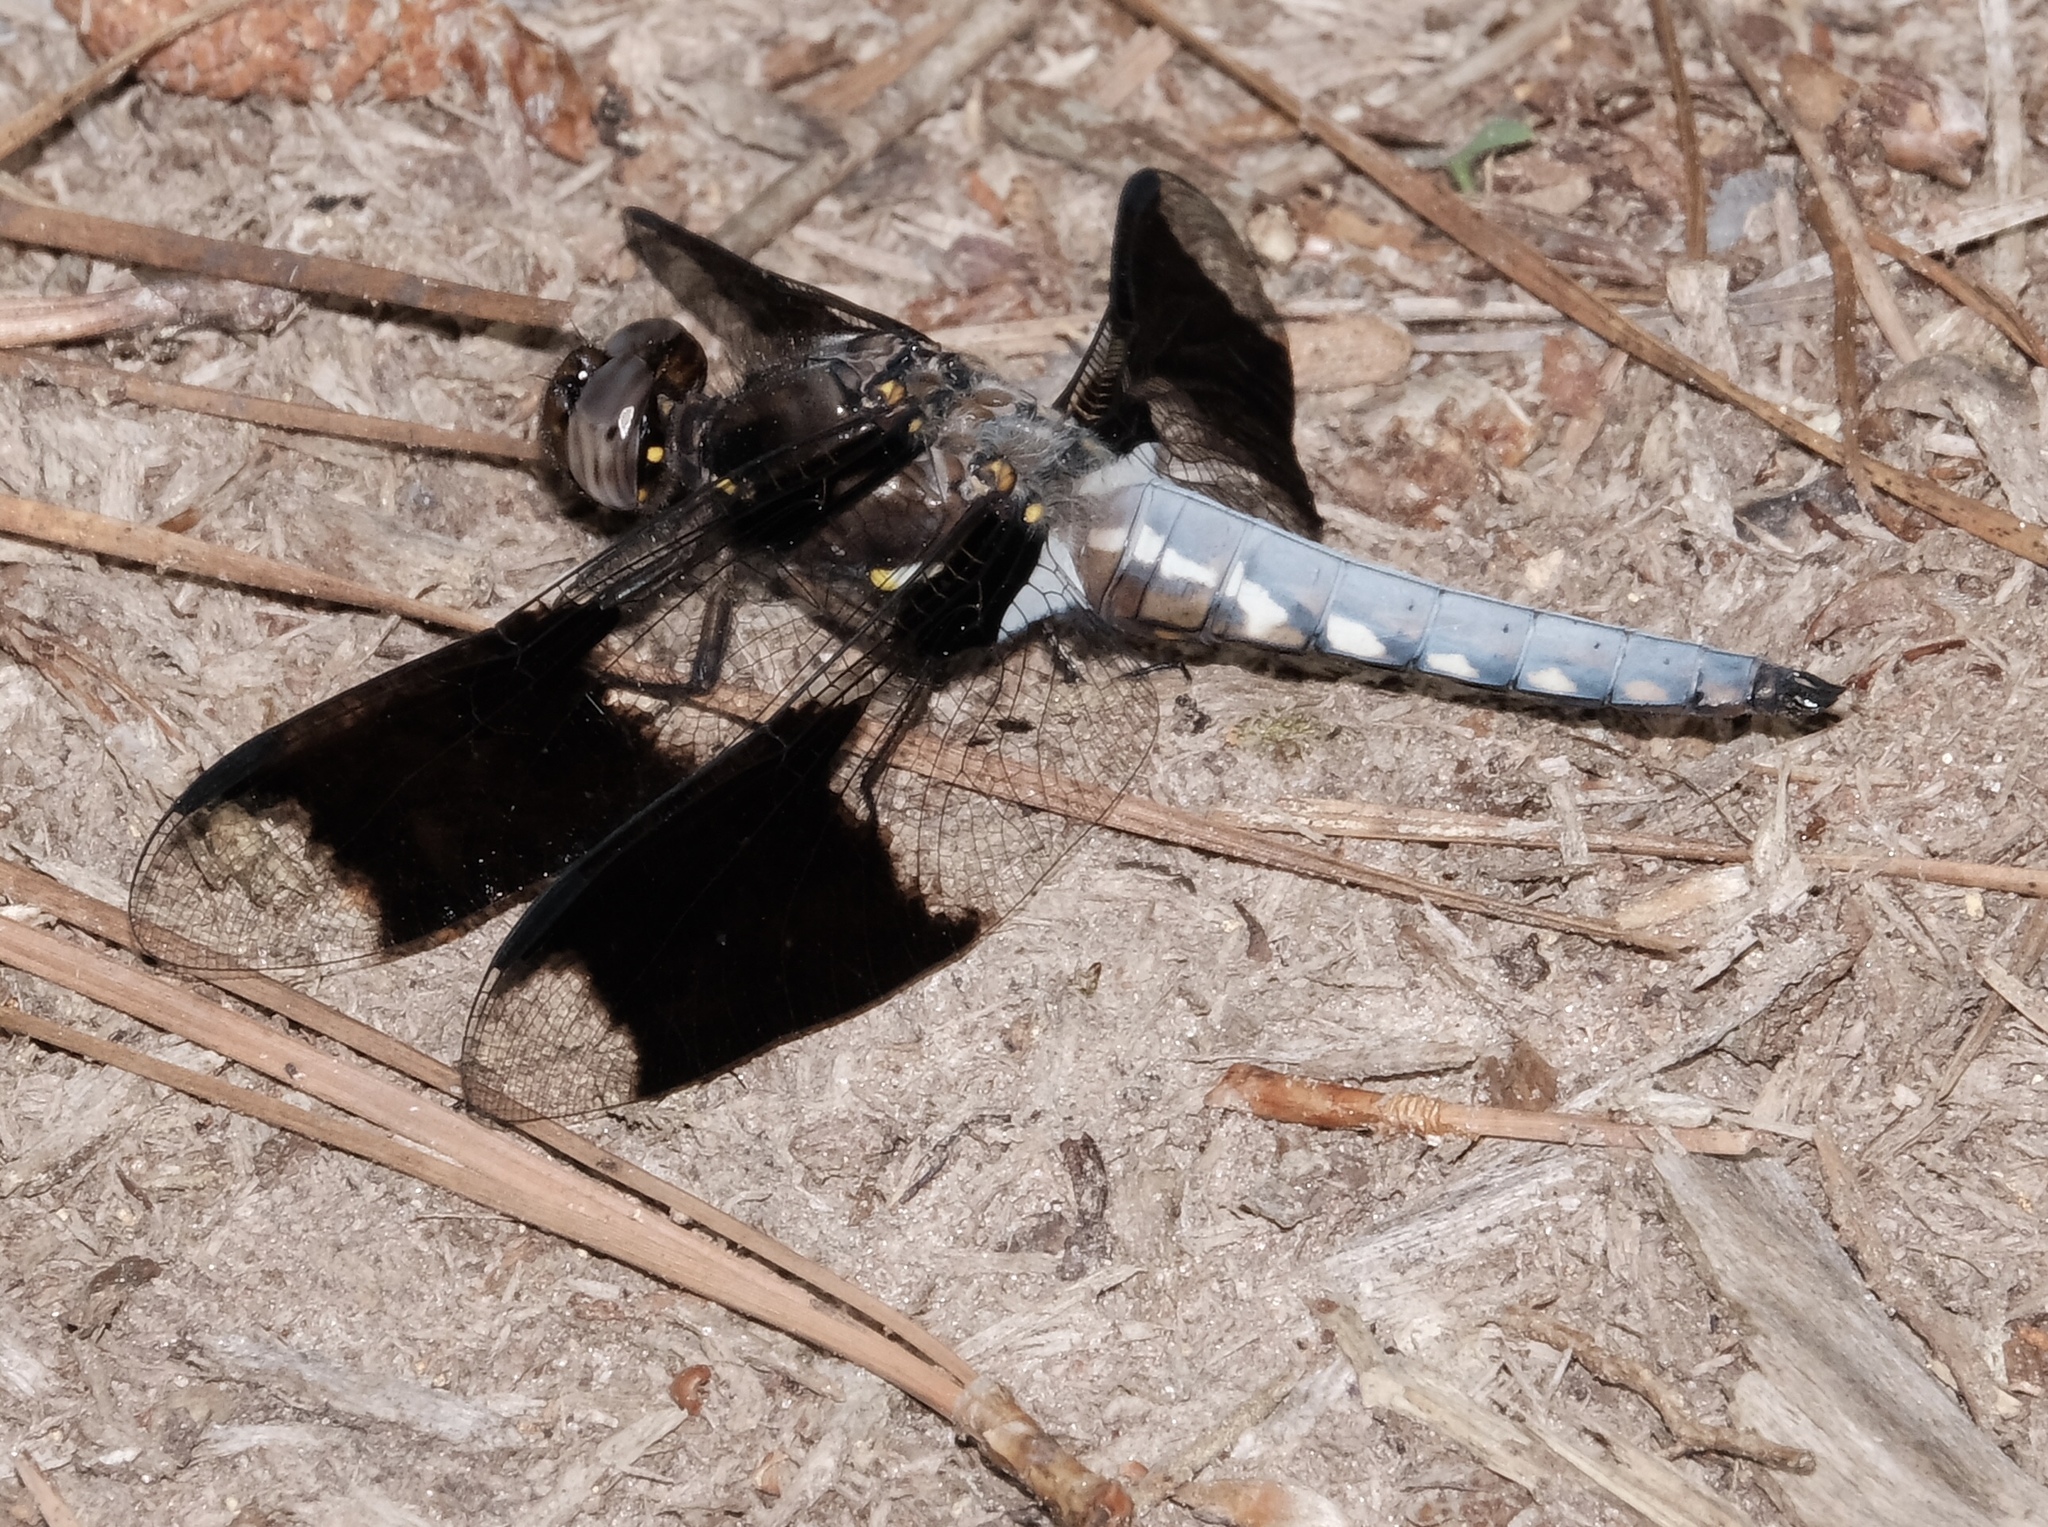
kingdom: Animalia
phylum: Arthropoda
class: Insecta
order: Odonata
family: Libellulidae
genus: Plathemis
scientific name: Plathemis lydia
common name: Common whitetail
